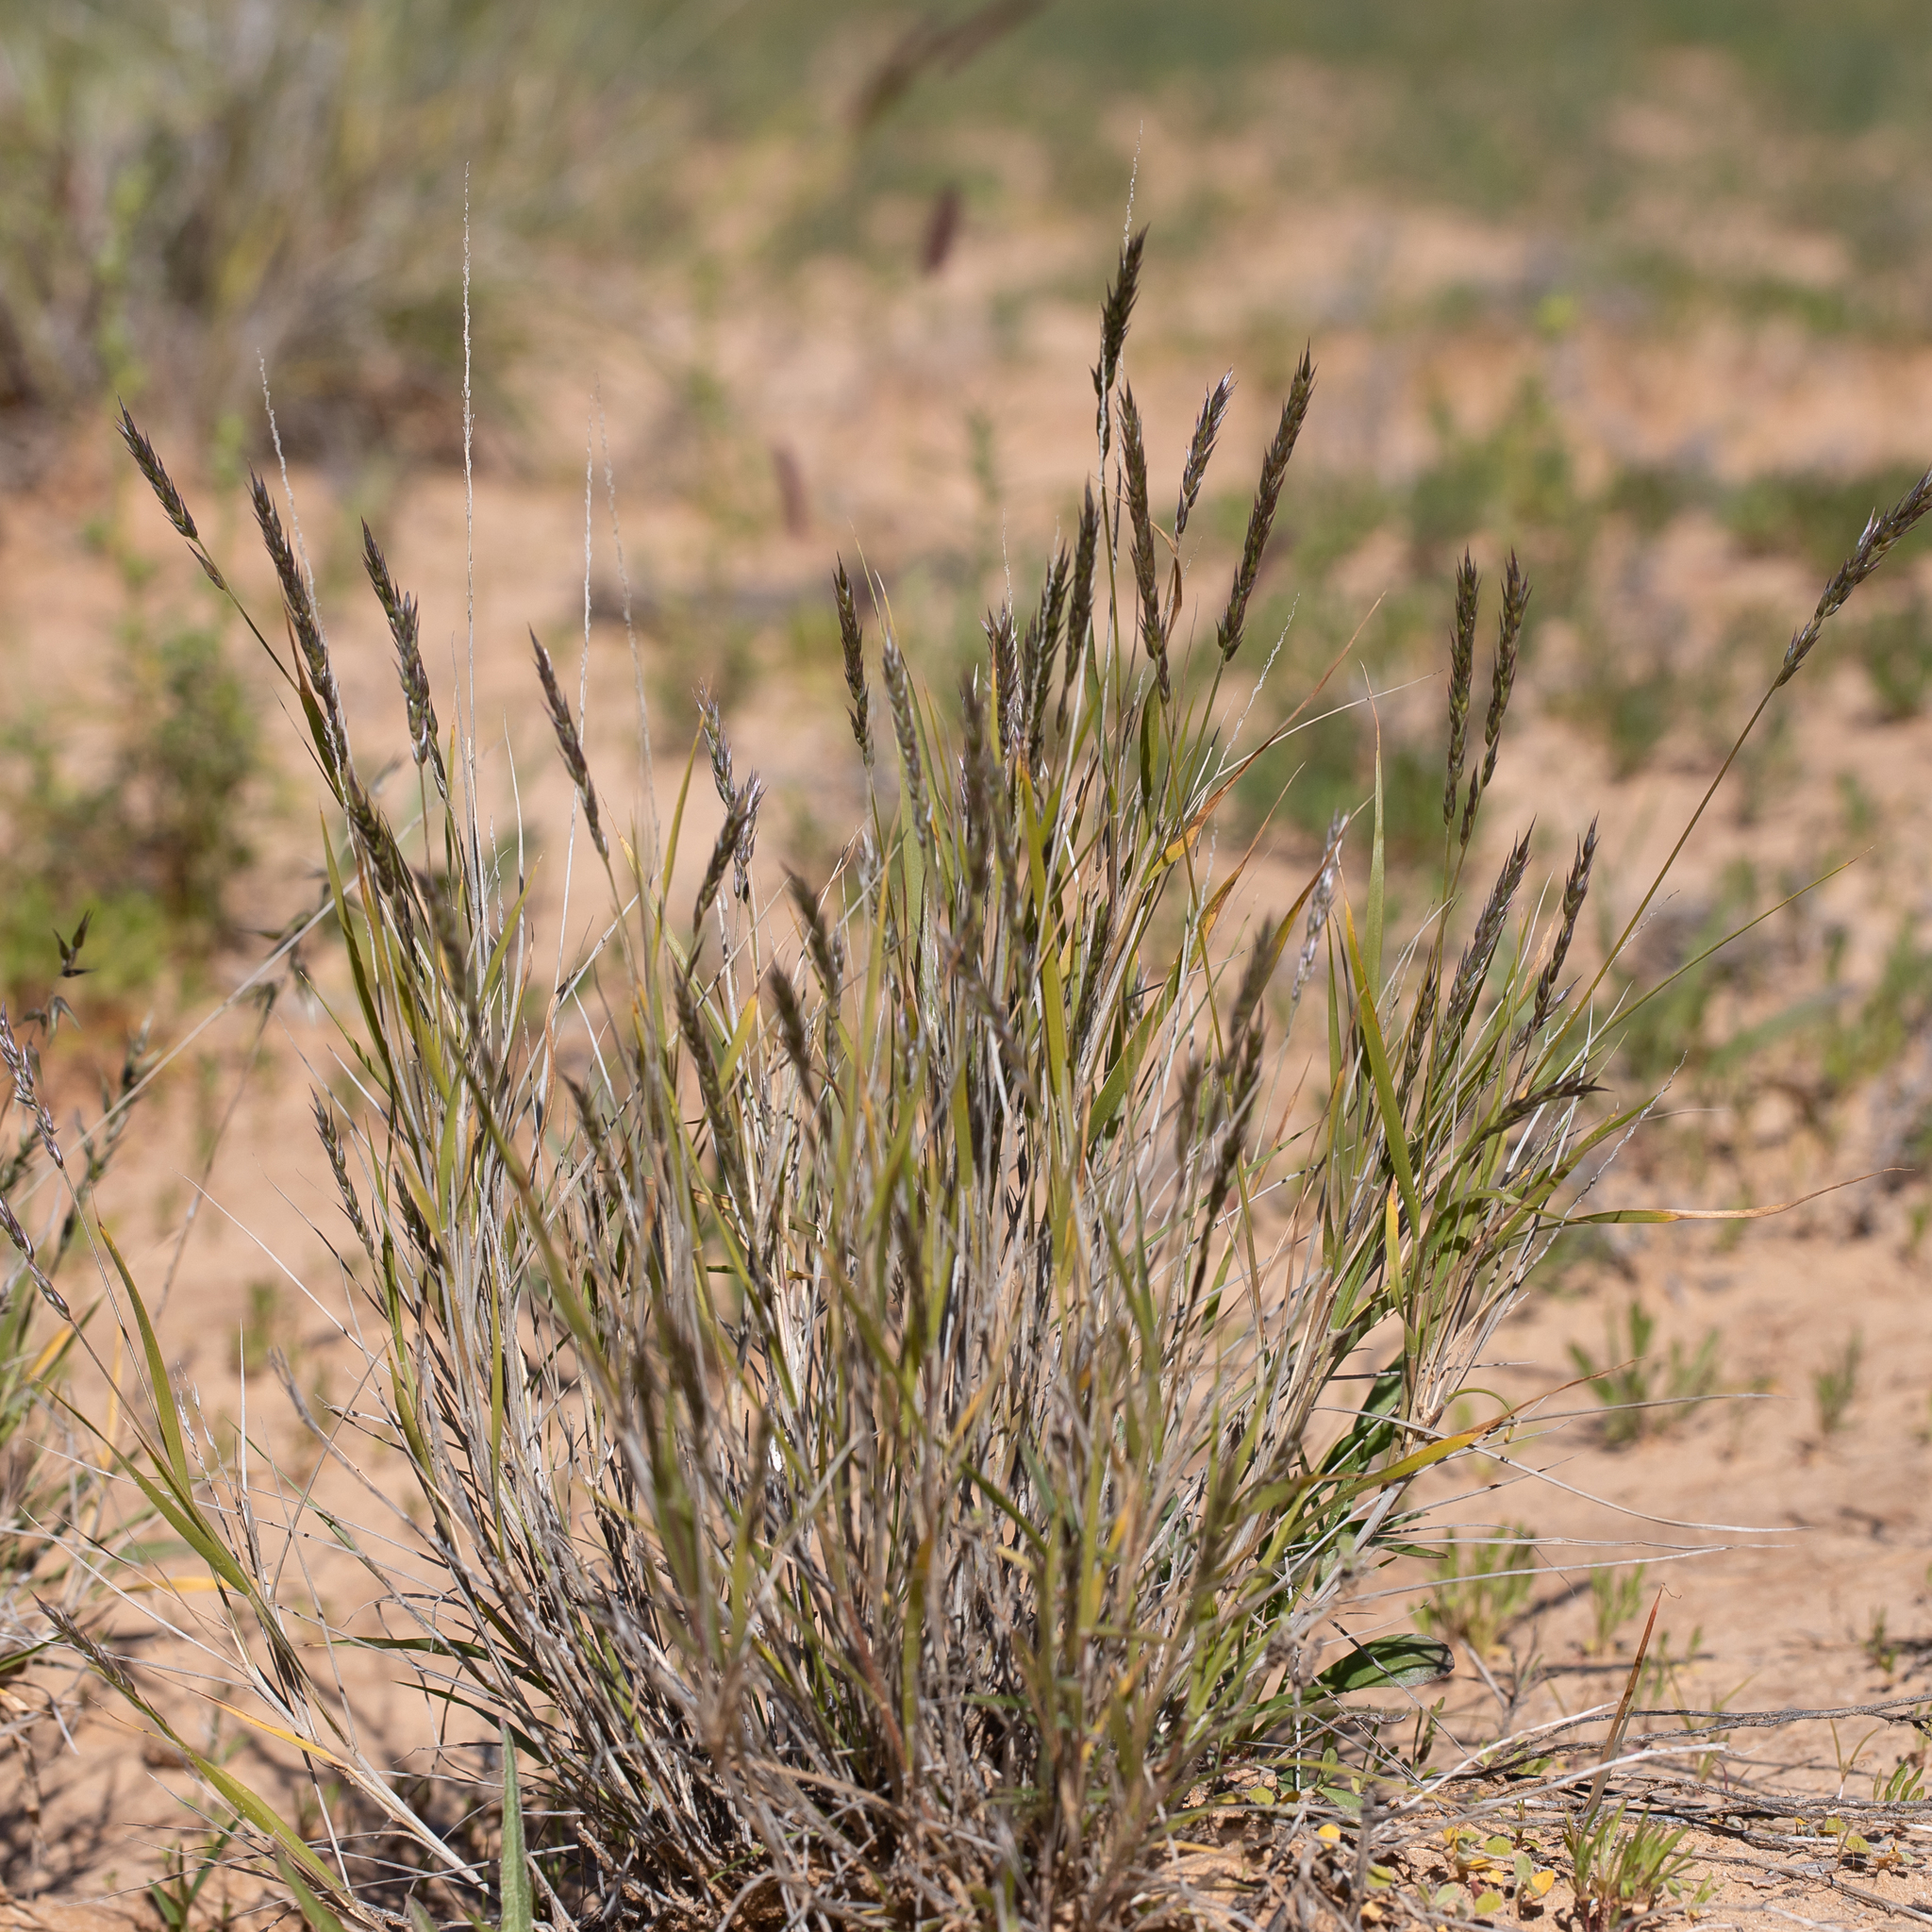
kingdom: Plantae
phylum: Tracheophyta
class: Liliopsida
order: Poales
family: Poaceae
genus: Enneapogon
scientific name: Enneapogon polyphyllus
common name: Leafy nineawn
